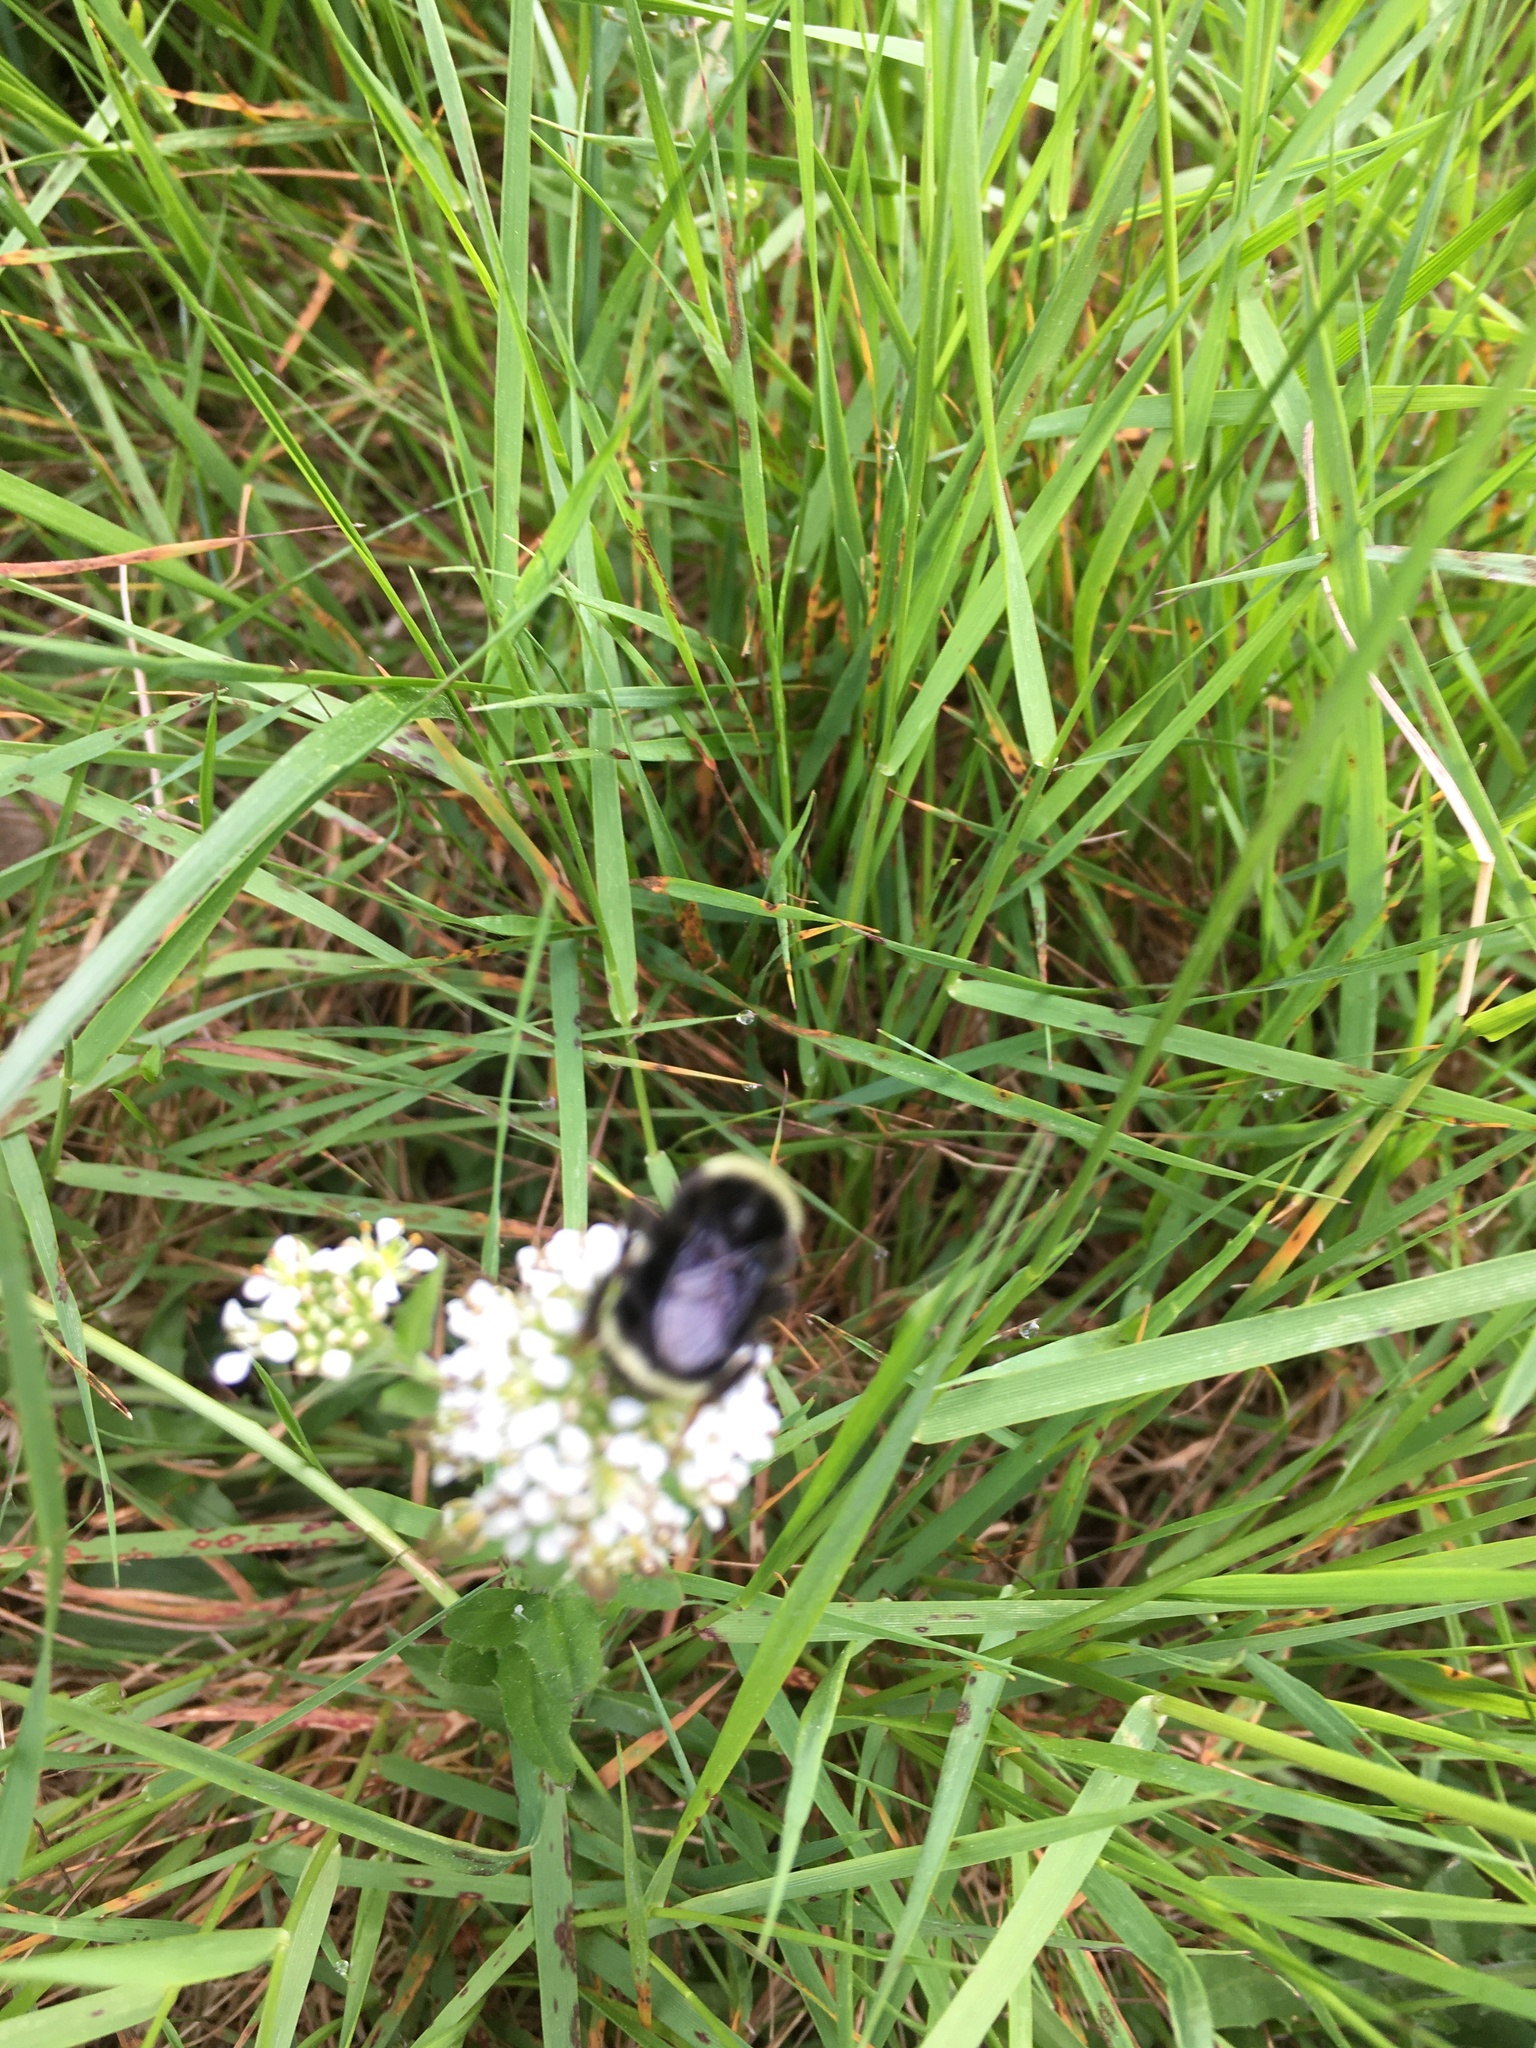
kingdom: Animalia
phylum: Arthropoda
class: Insecta
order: Hymenoptera
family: Apidae
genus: Bombus
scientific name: Bombus vosnesenskii
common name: Vosnesensky bumble bee
